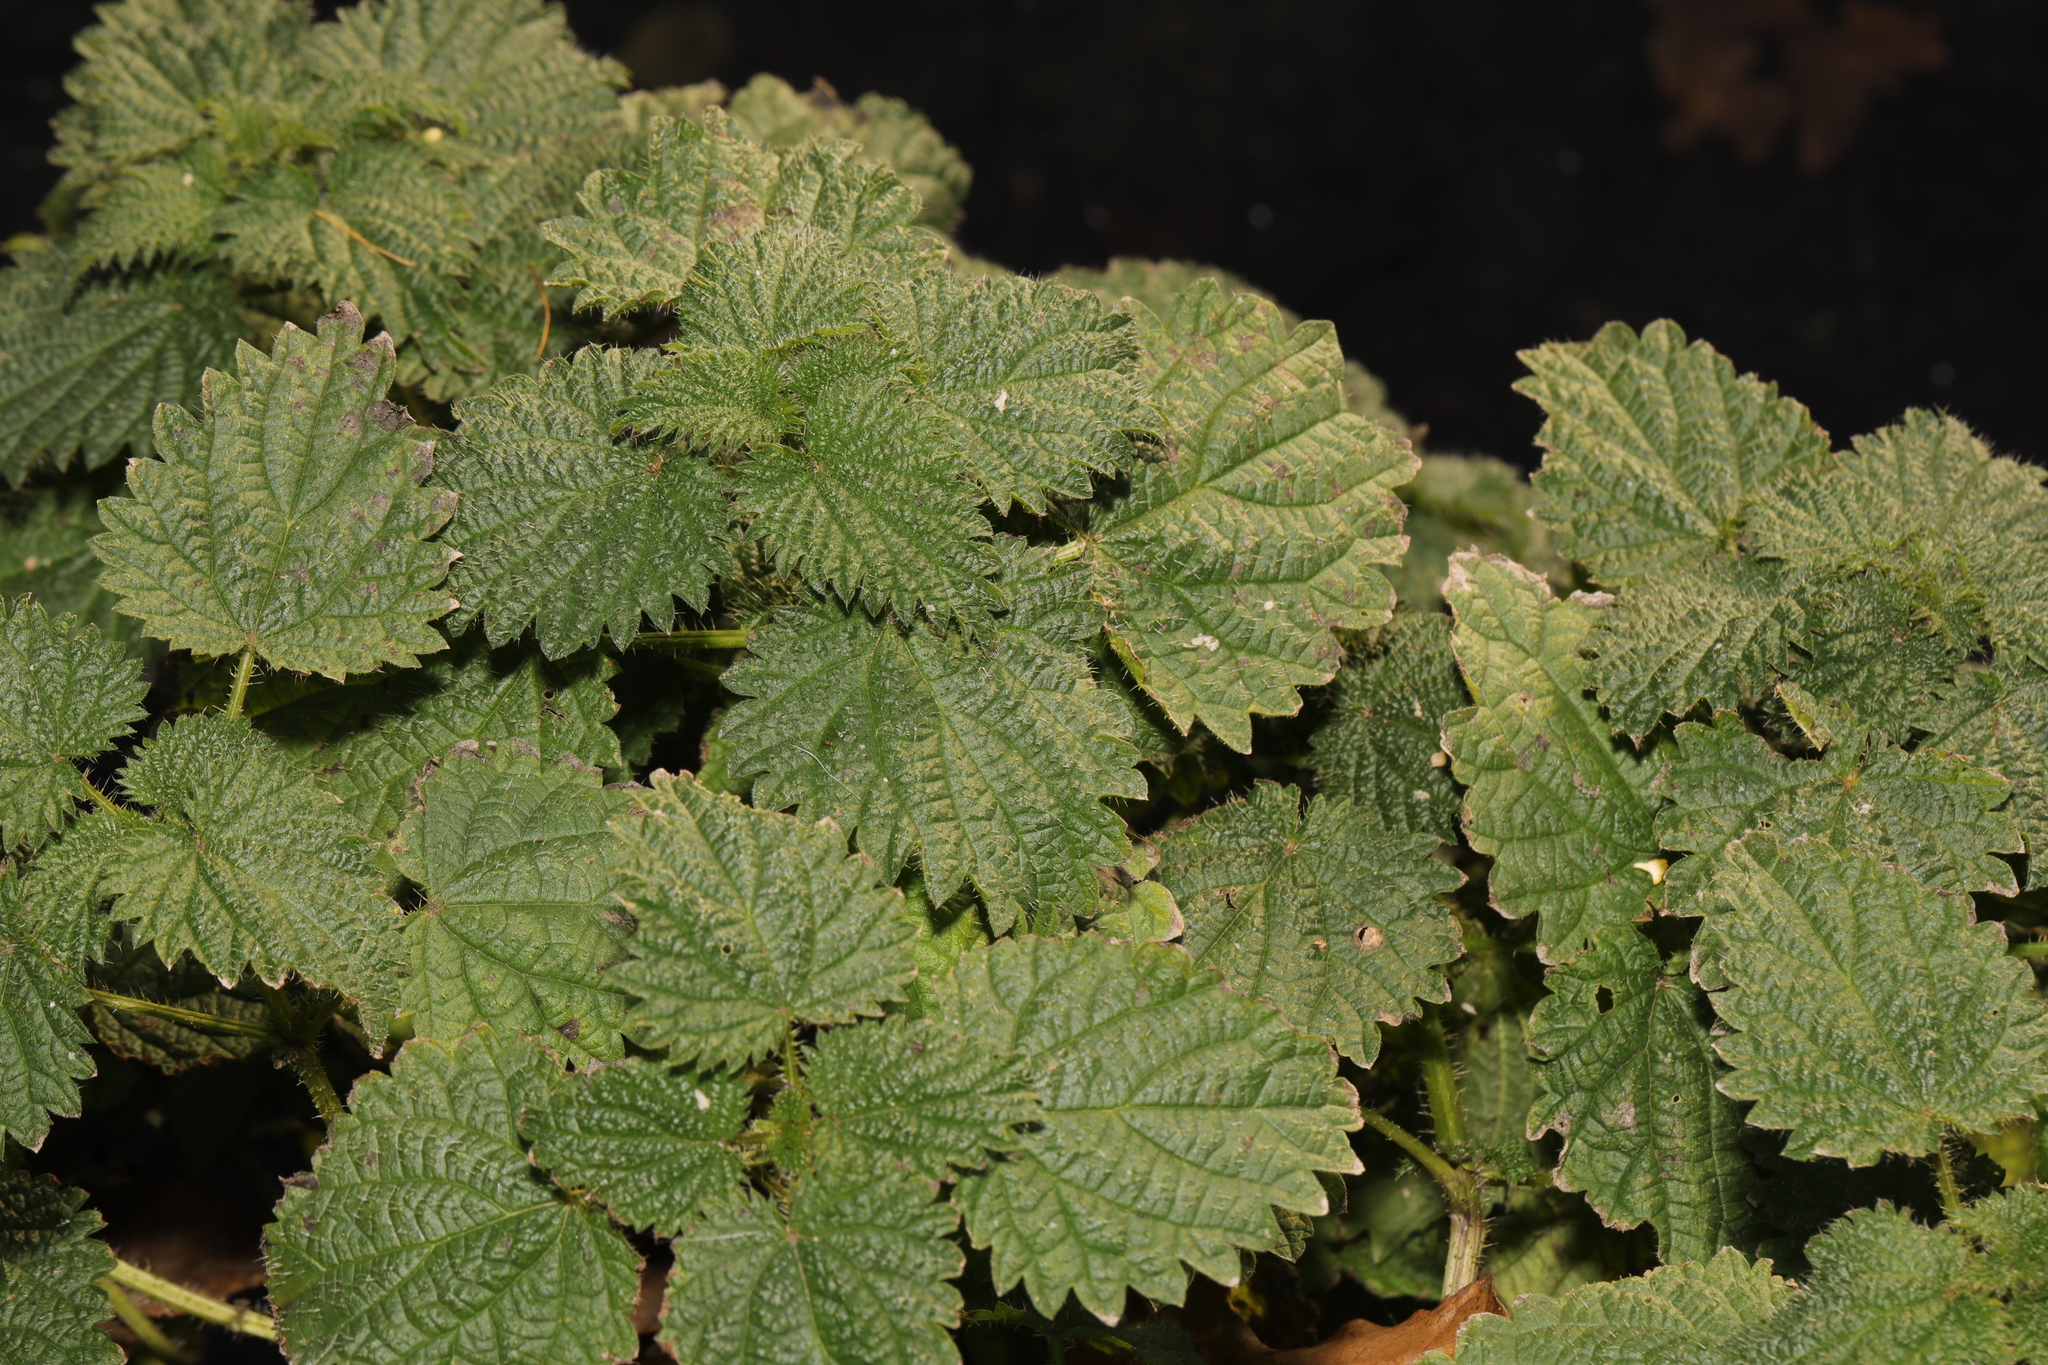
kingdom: Plantae
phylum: Tracheophyta
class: Magnoliopsida
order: Rosales
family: Urticaceae
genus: Urtica
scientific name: Urtica dioica
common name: Common nettle
